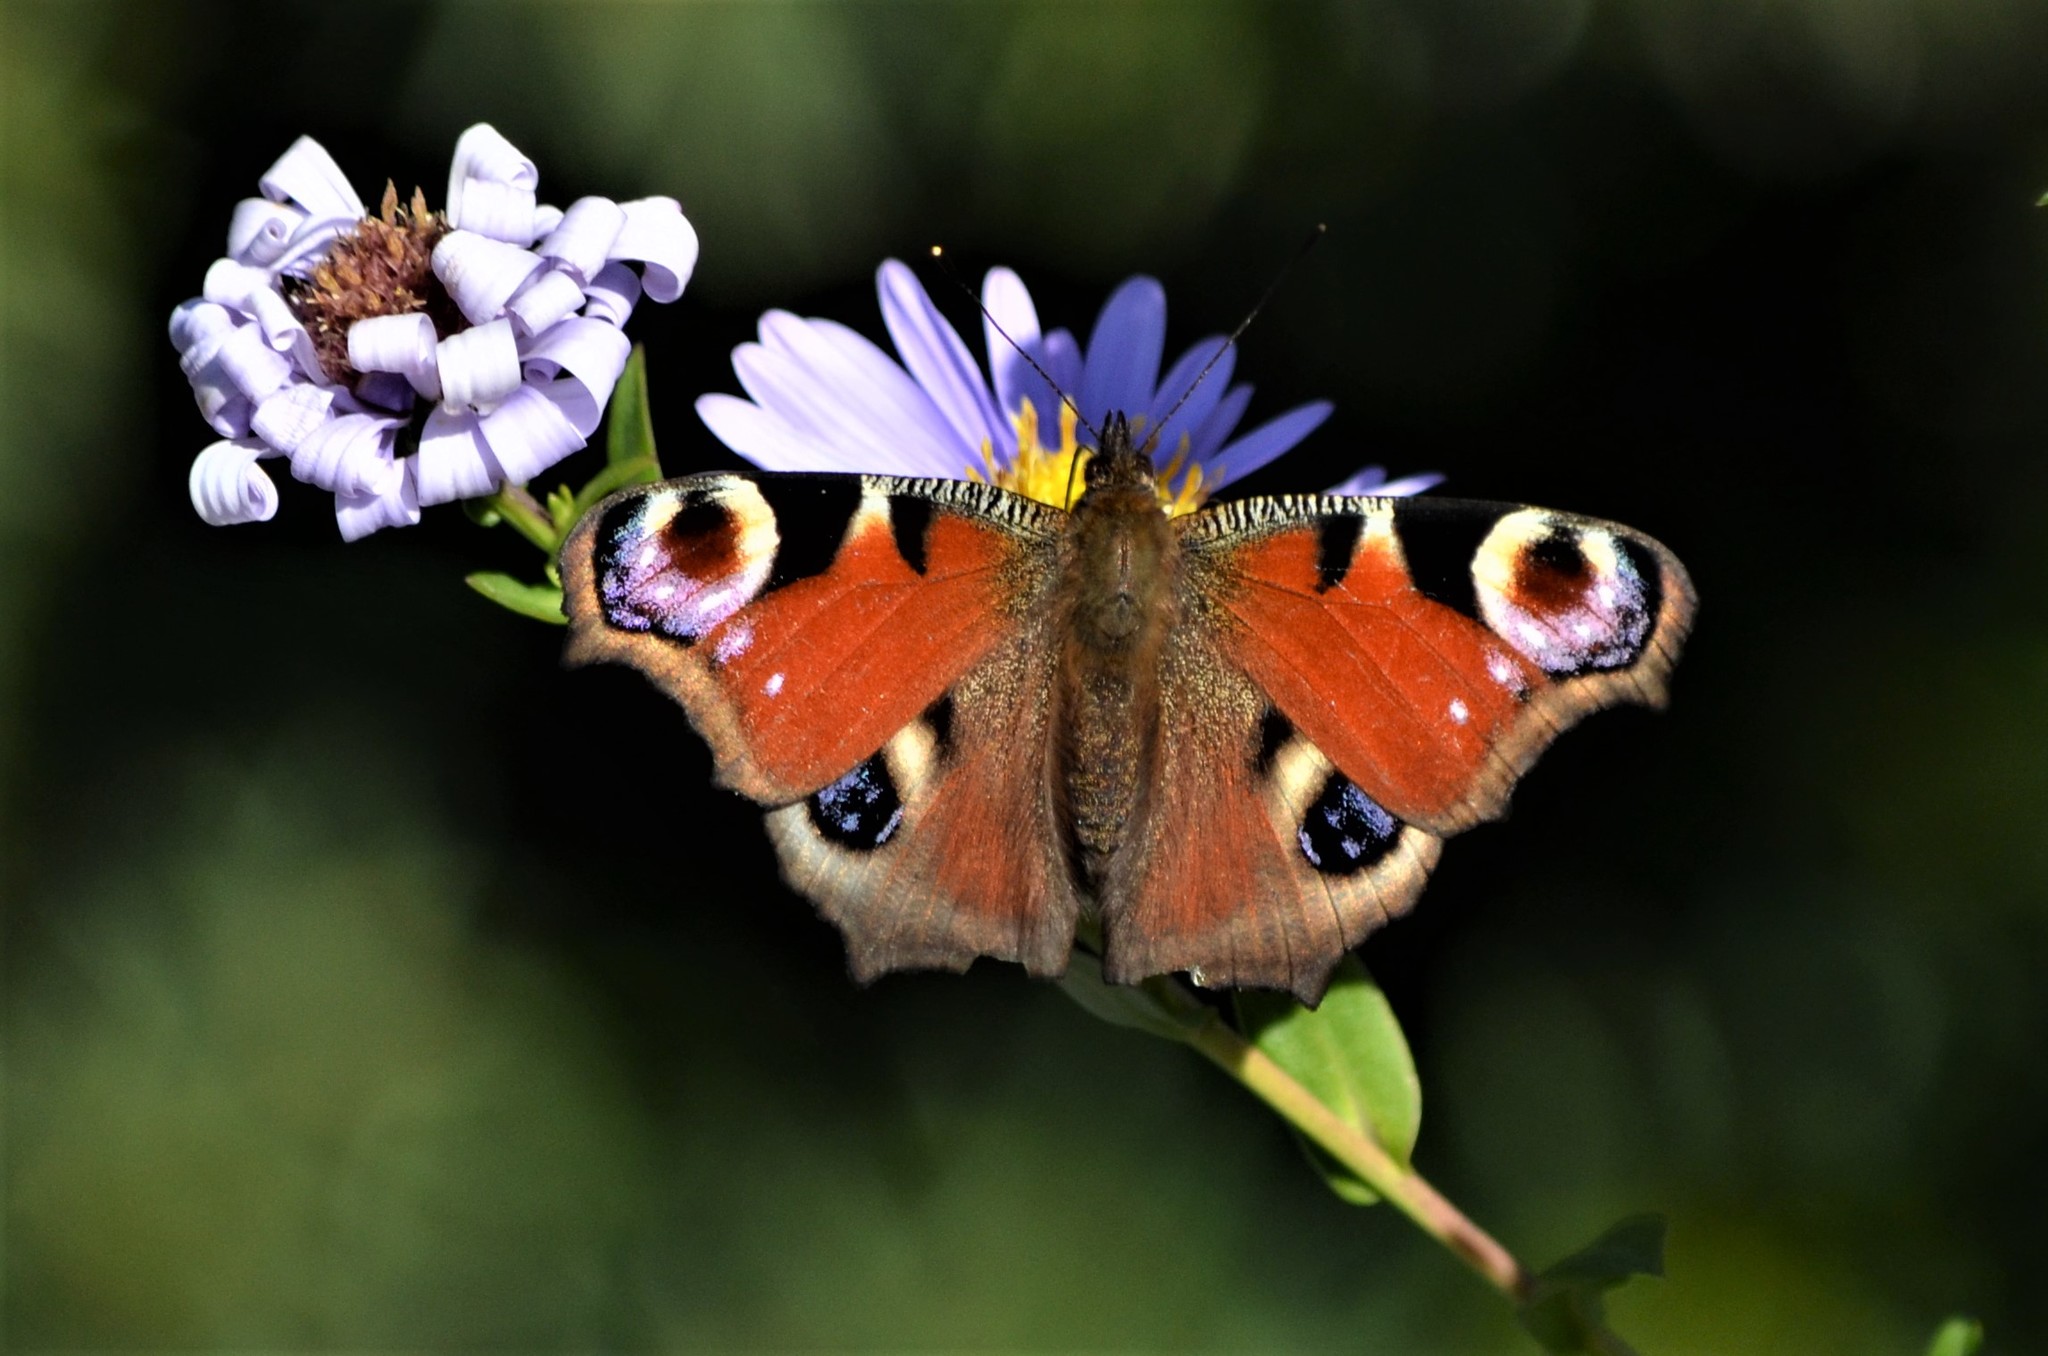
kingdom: Animalia
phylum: Arthropoda
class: Insecta
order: Lepidoptera
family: Nymphalidae
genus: Aglais
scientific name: Aglais io
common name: Peacock
